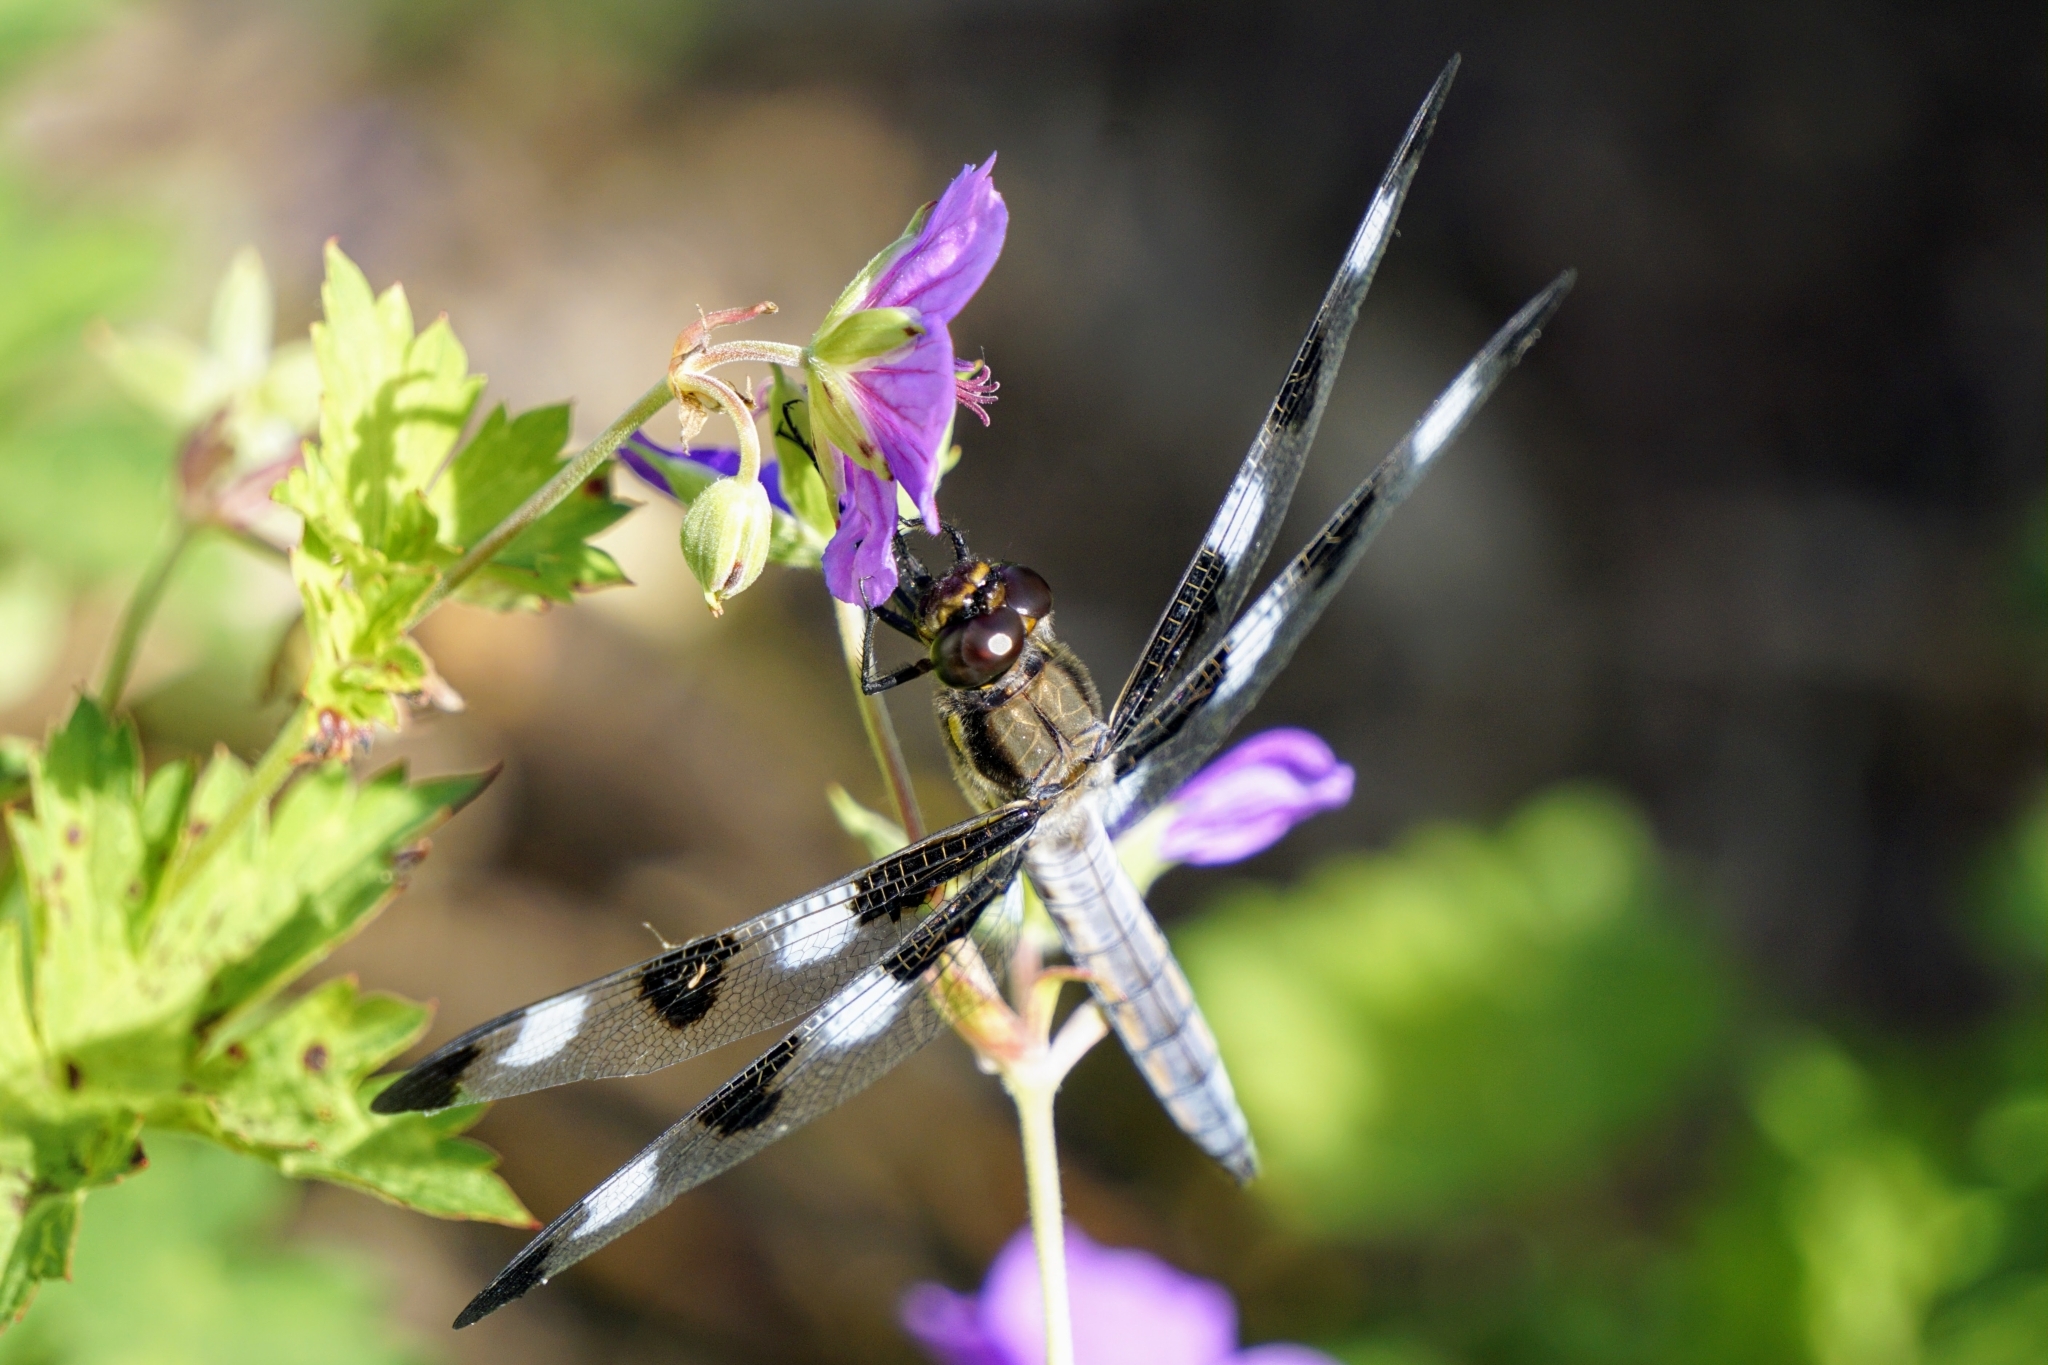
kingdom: Animalia
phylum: Arthropoda
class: Insecta
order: Odonata
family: Libellulidae
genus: Libellula
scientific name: Libellula pulchella
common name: Twelve-spotted skimmer
